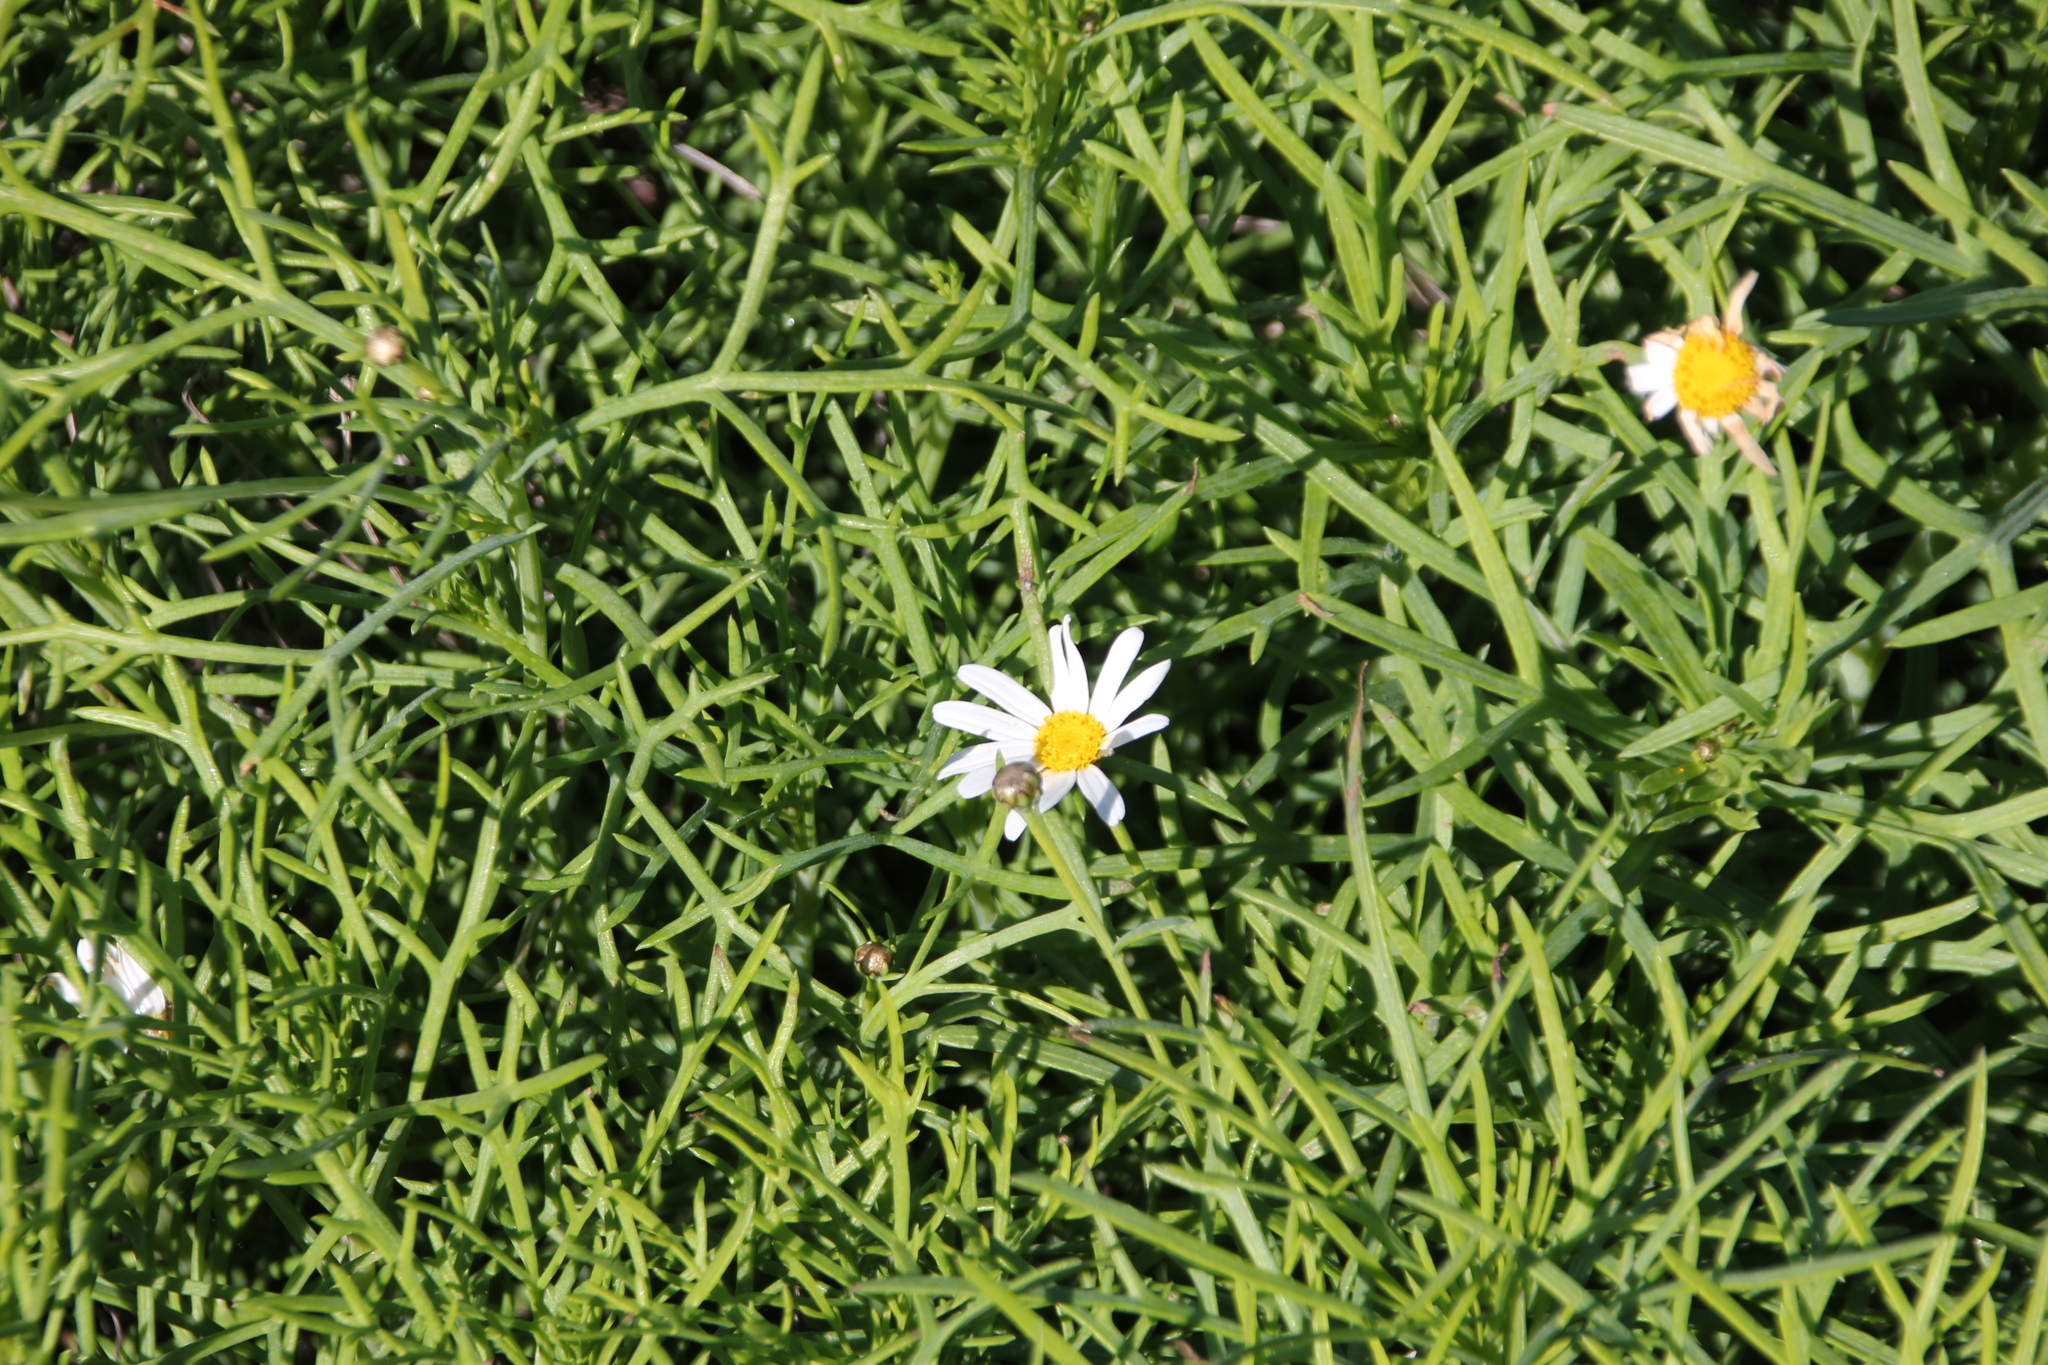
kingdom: Plantae
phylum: Tracheophyta
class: Magnoliopsida
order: Asterales
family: Asteraceae
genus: Argyranthemum
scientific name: Argyranthemum foeniculaceum
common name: Canary island marguerite
